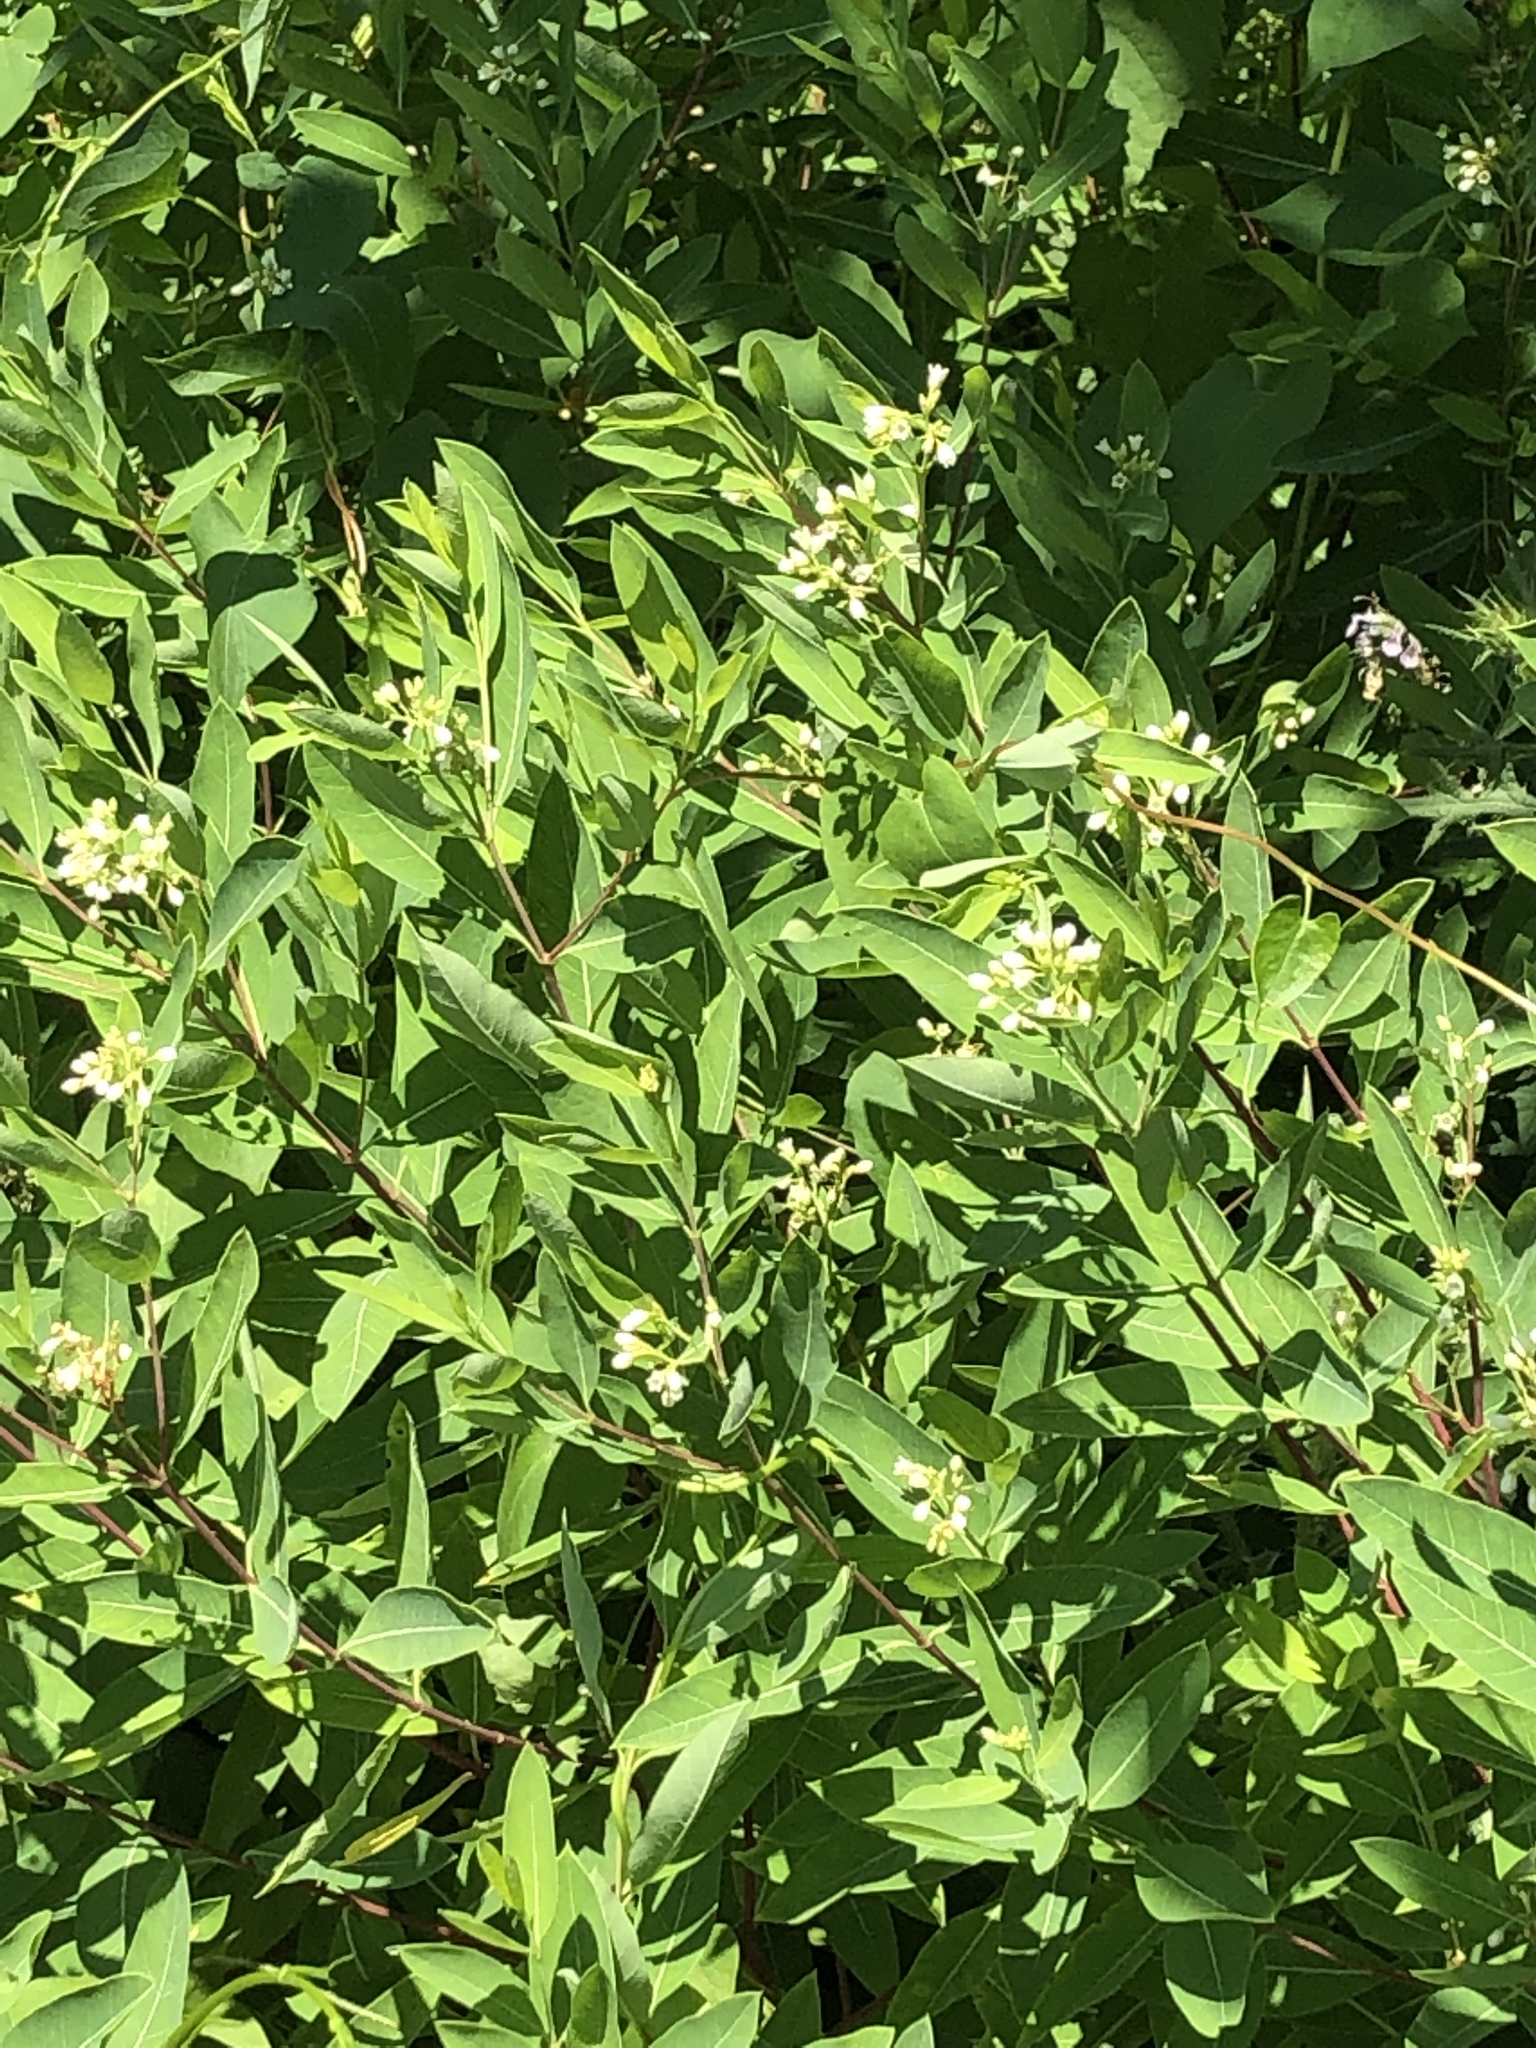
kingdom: Plantae
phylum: Tracheophyta
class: Magnoliopsida
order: Gentianales
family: Apocynaceae
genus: Apocynum
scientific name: Apocynum cannabinum
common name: Hemp dogbane
